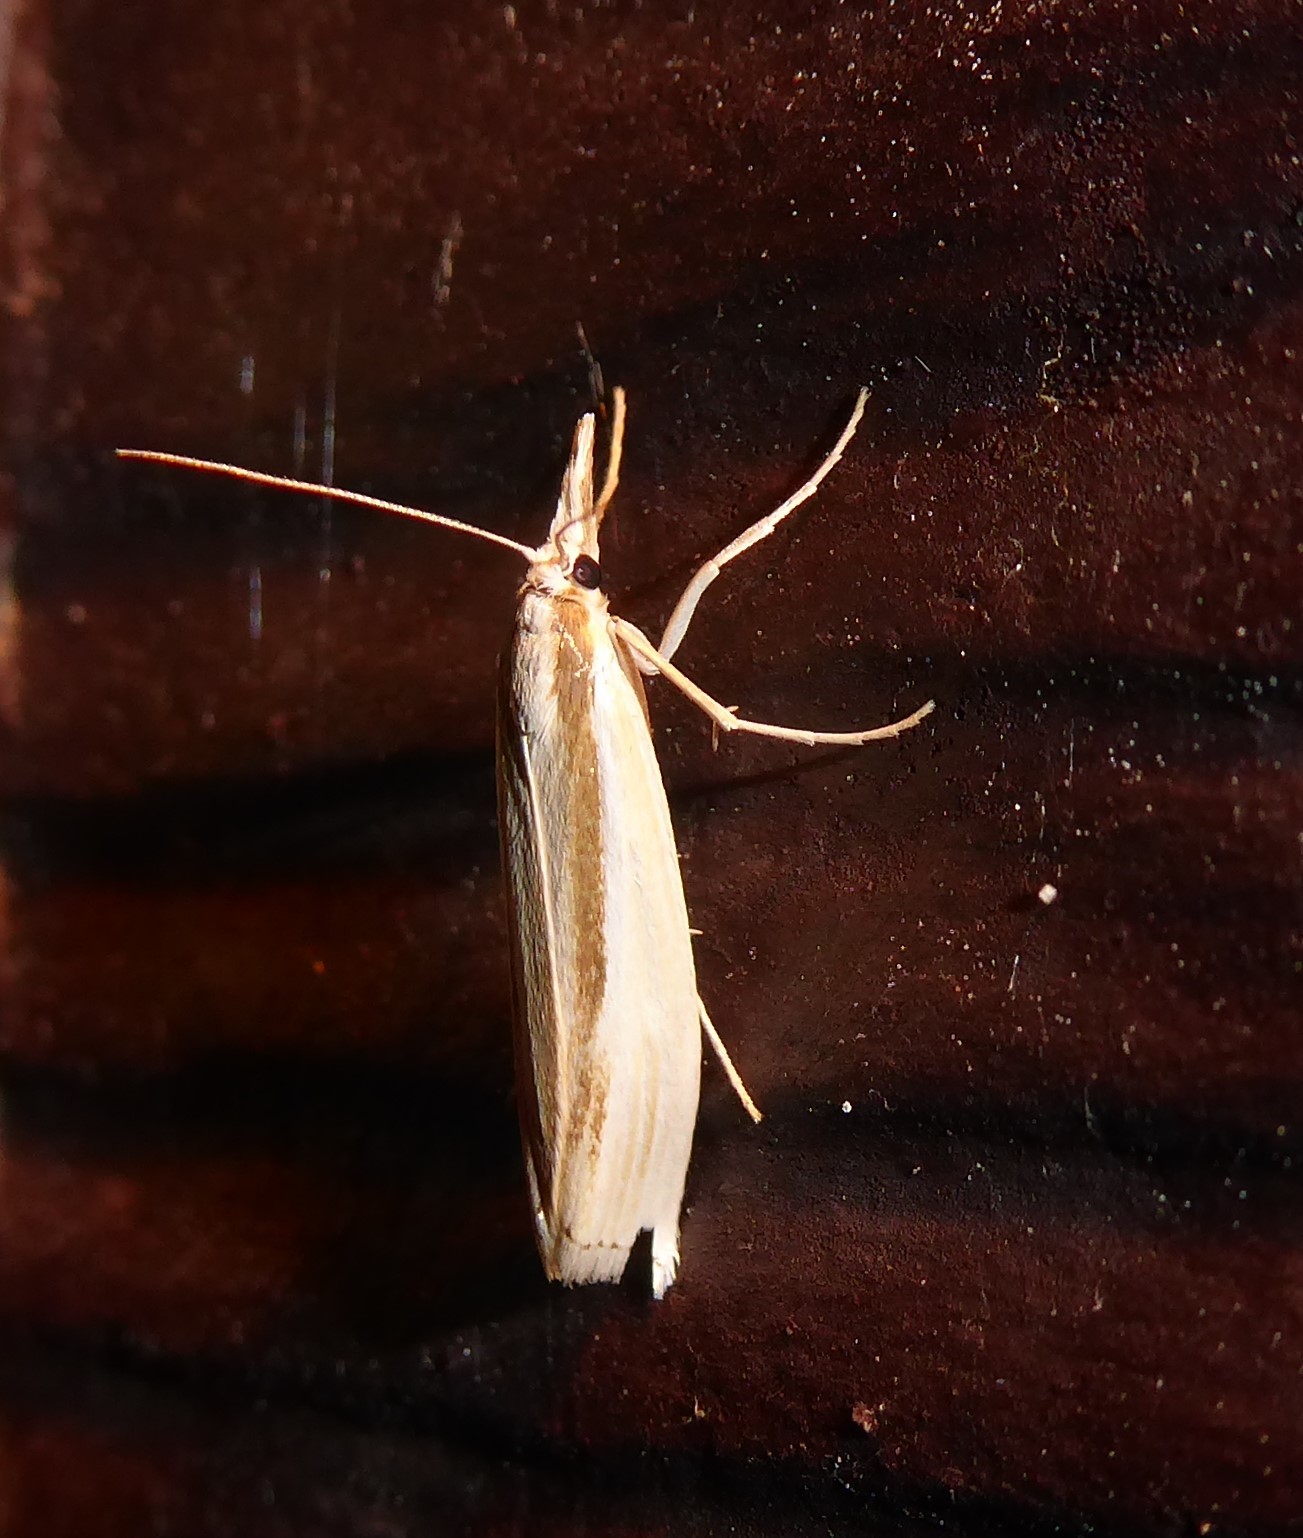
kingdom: Animalia
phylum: Arthropoda
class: Insecta
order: Lepidoptera
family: Crambidae
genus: Orocrambus
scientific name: Orocrambus ramosellus
